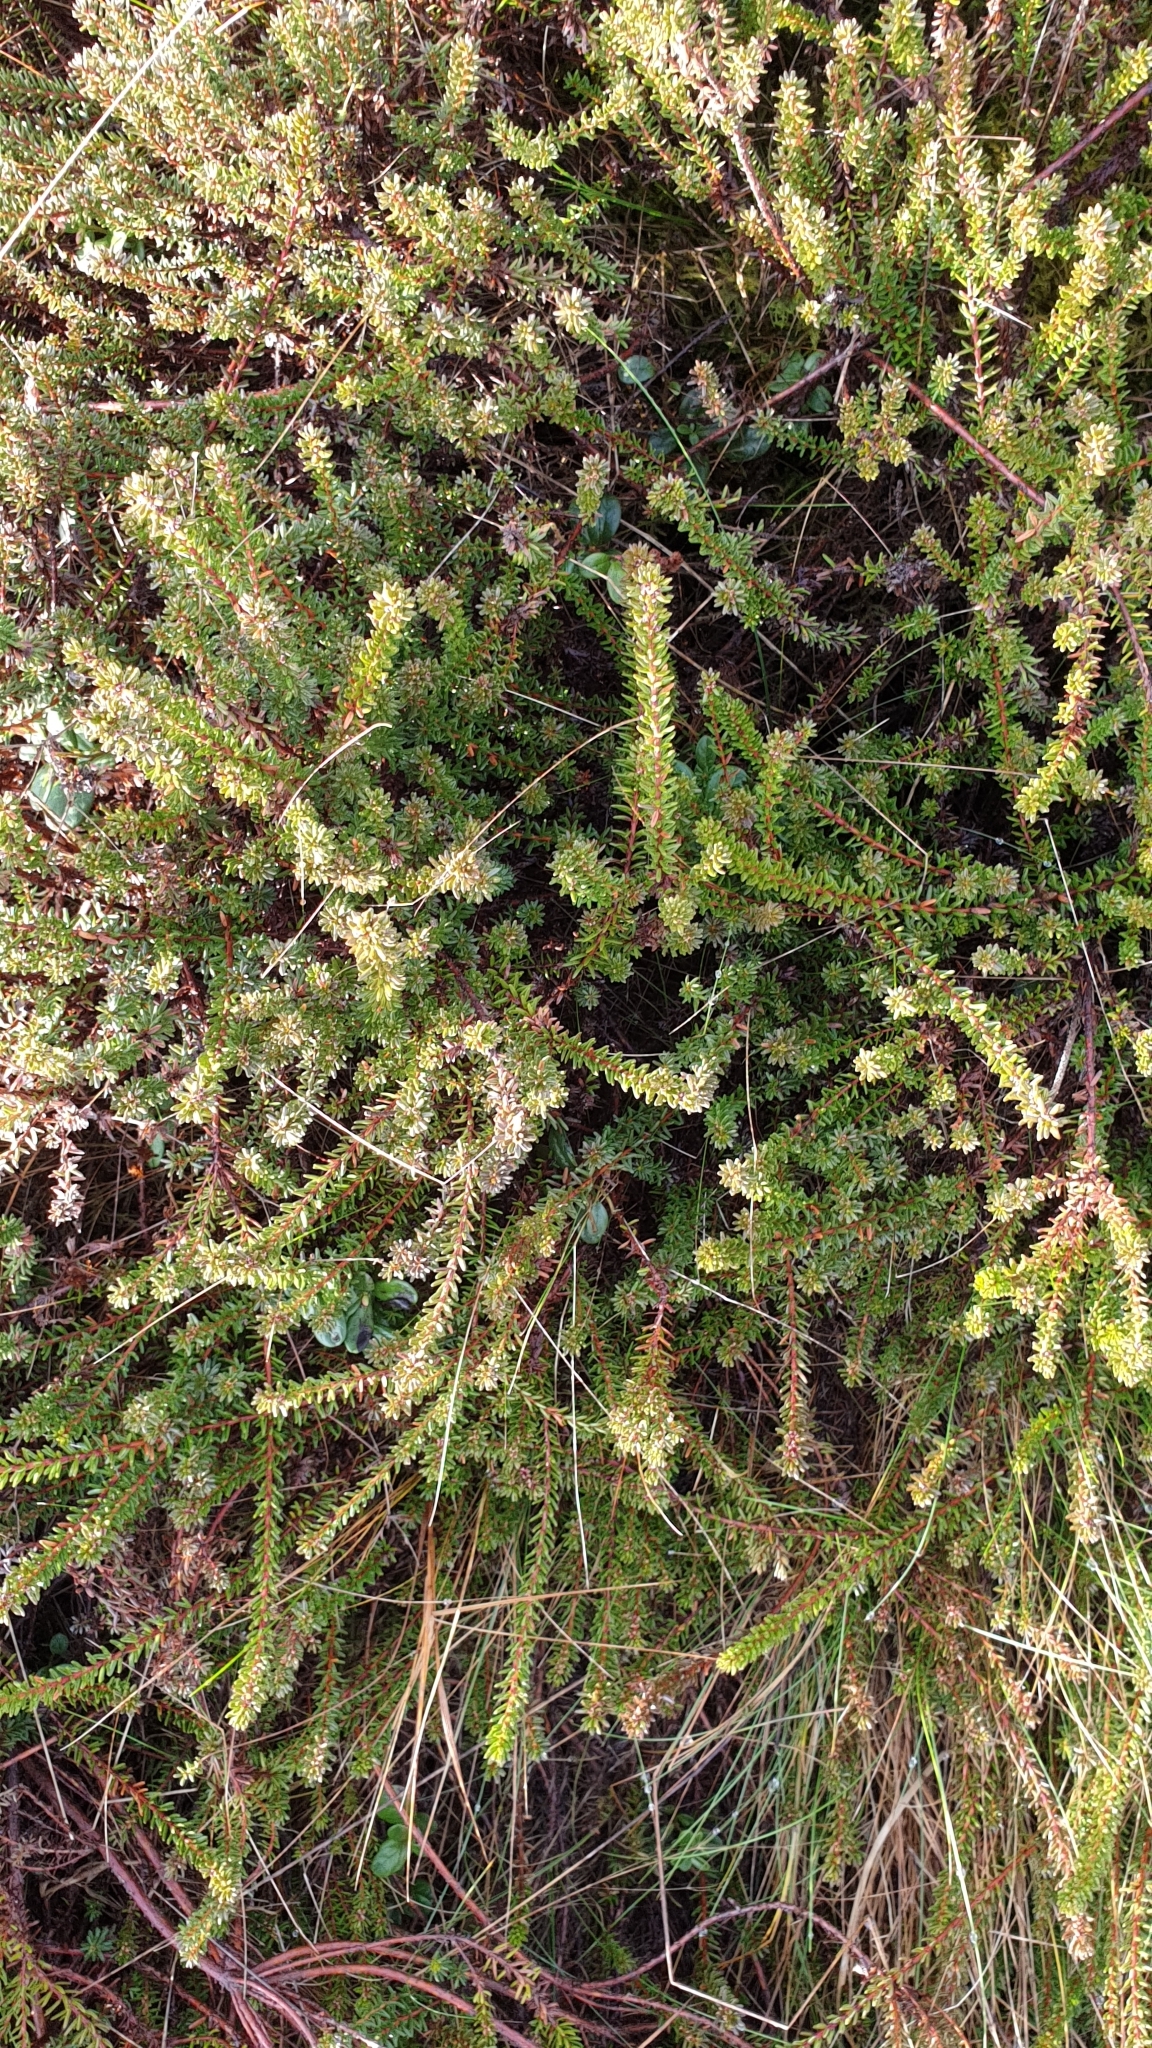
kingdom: Plantae
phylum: Tracheophyta
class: Magnoliopsida
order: Ericales
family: Ericaceae
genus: Empetrum
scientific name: Empetrum nigrum
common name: Black crowberry
